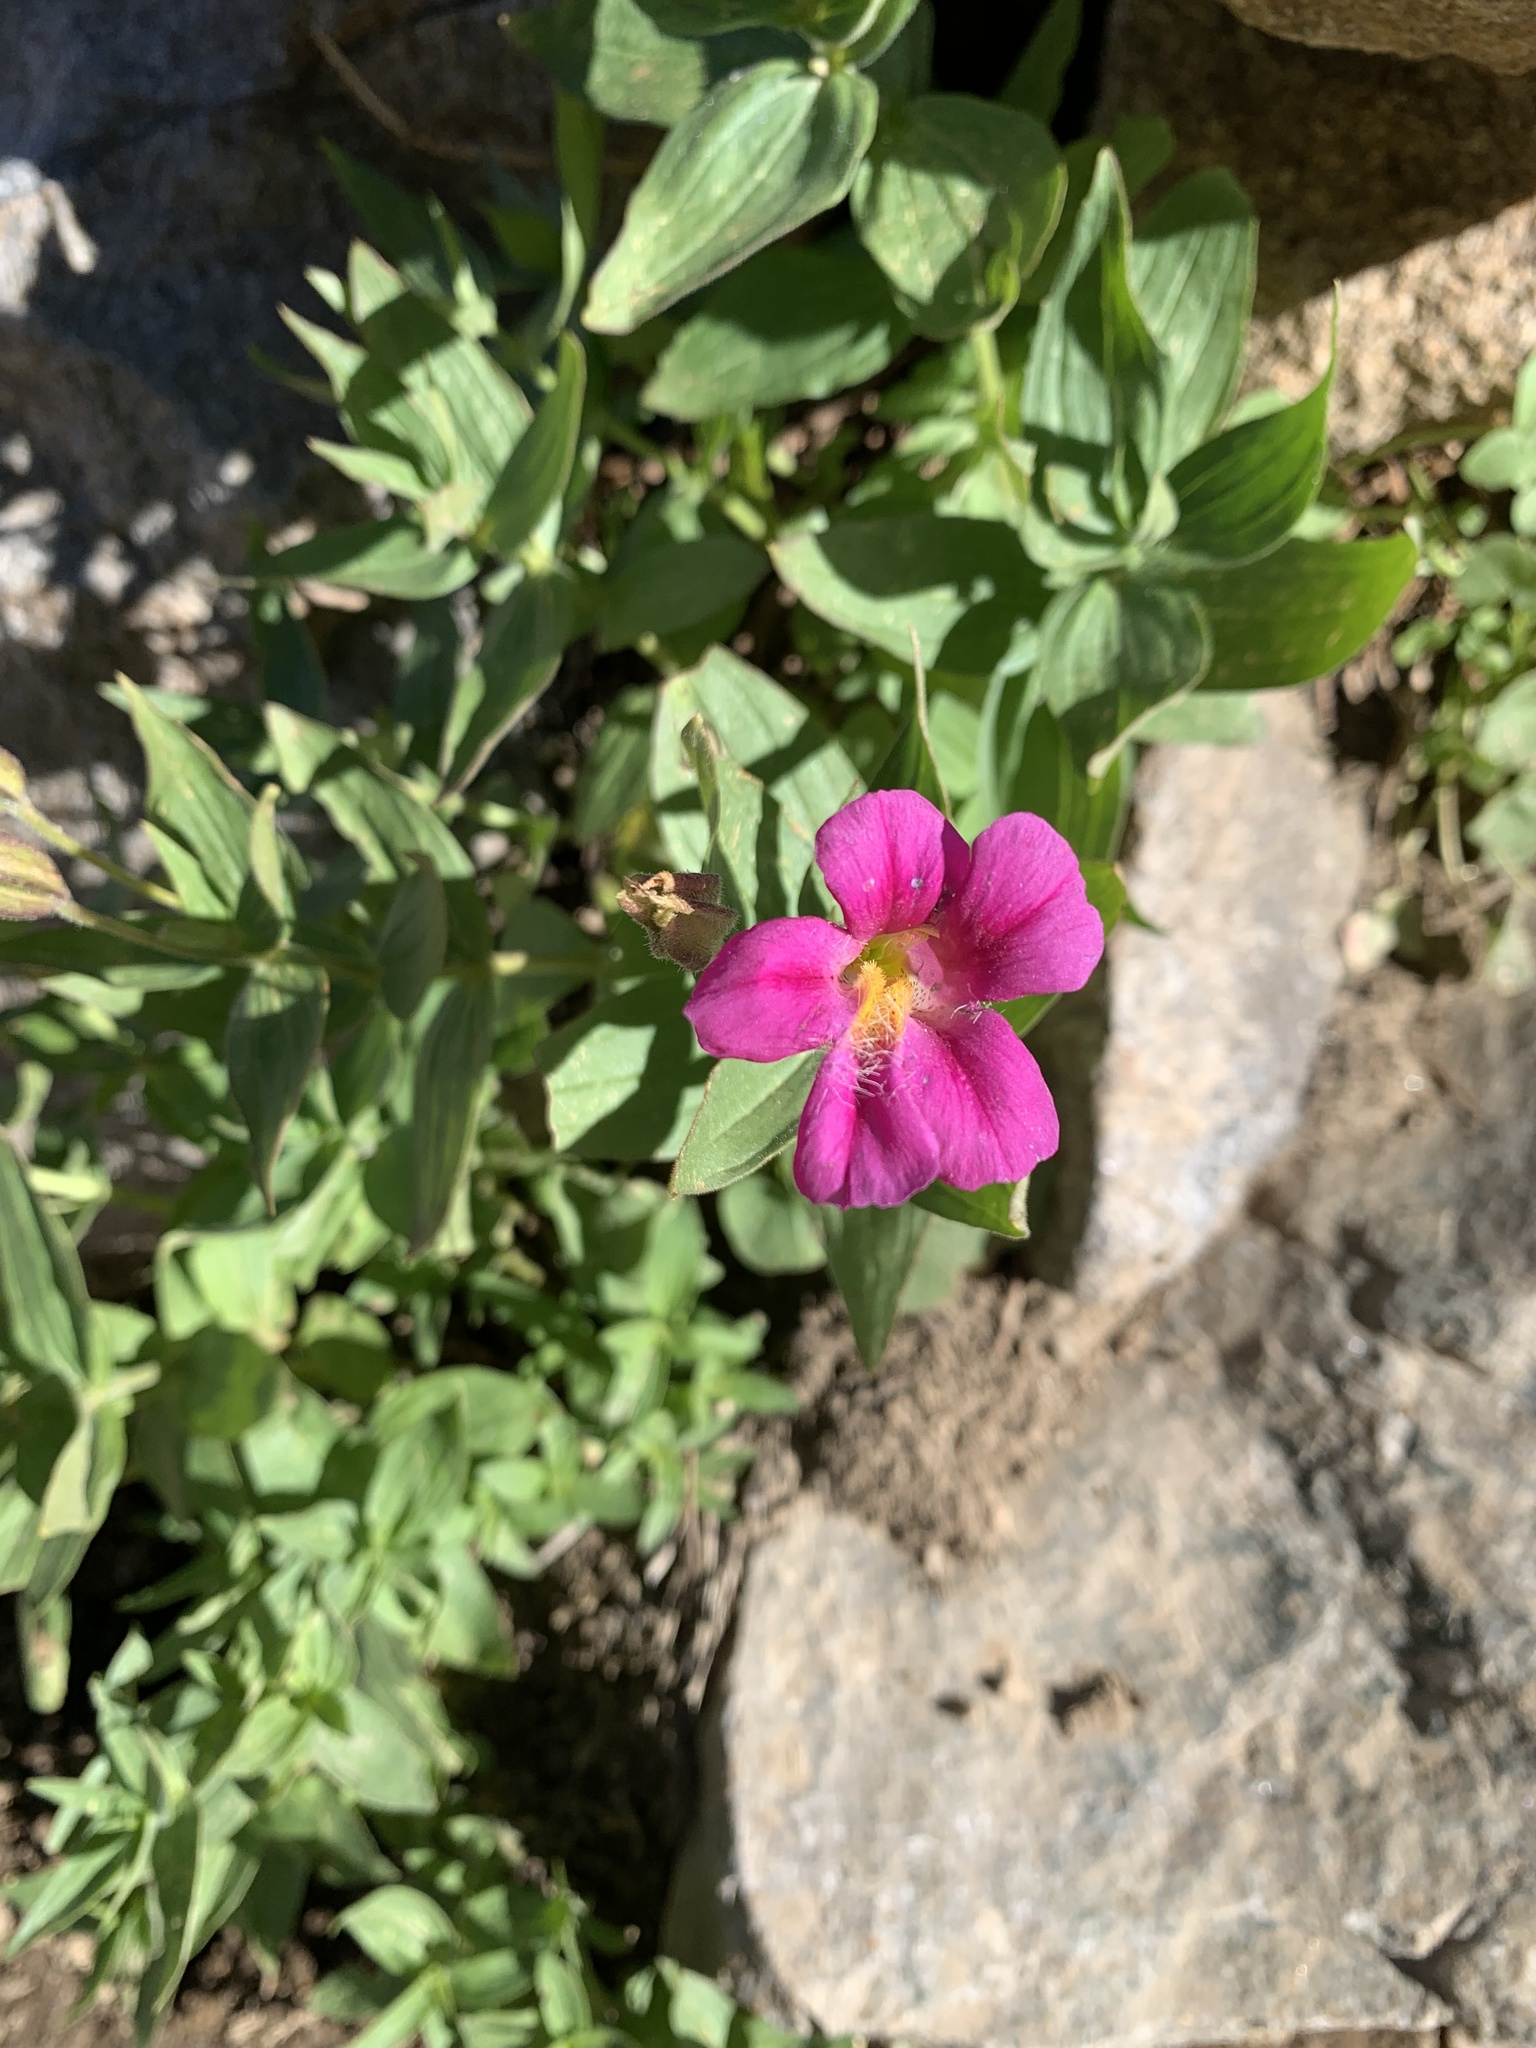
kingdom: Plantae
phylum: Tracheophyta
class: Magnoliopsida
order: Lamiales
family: Phrymaceae
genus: Erythranthe
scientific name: Erythranthe lewisii
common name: Lewis's monkey-flower
